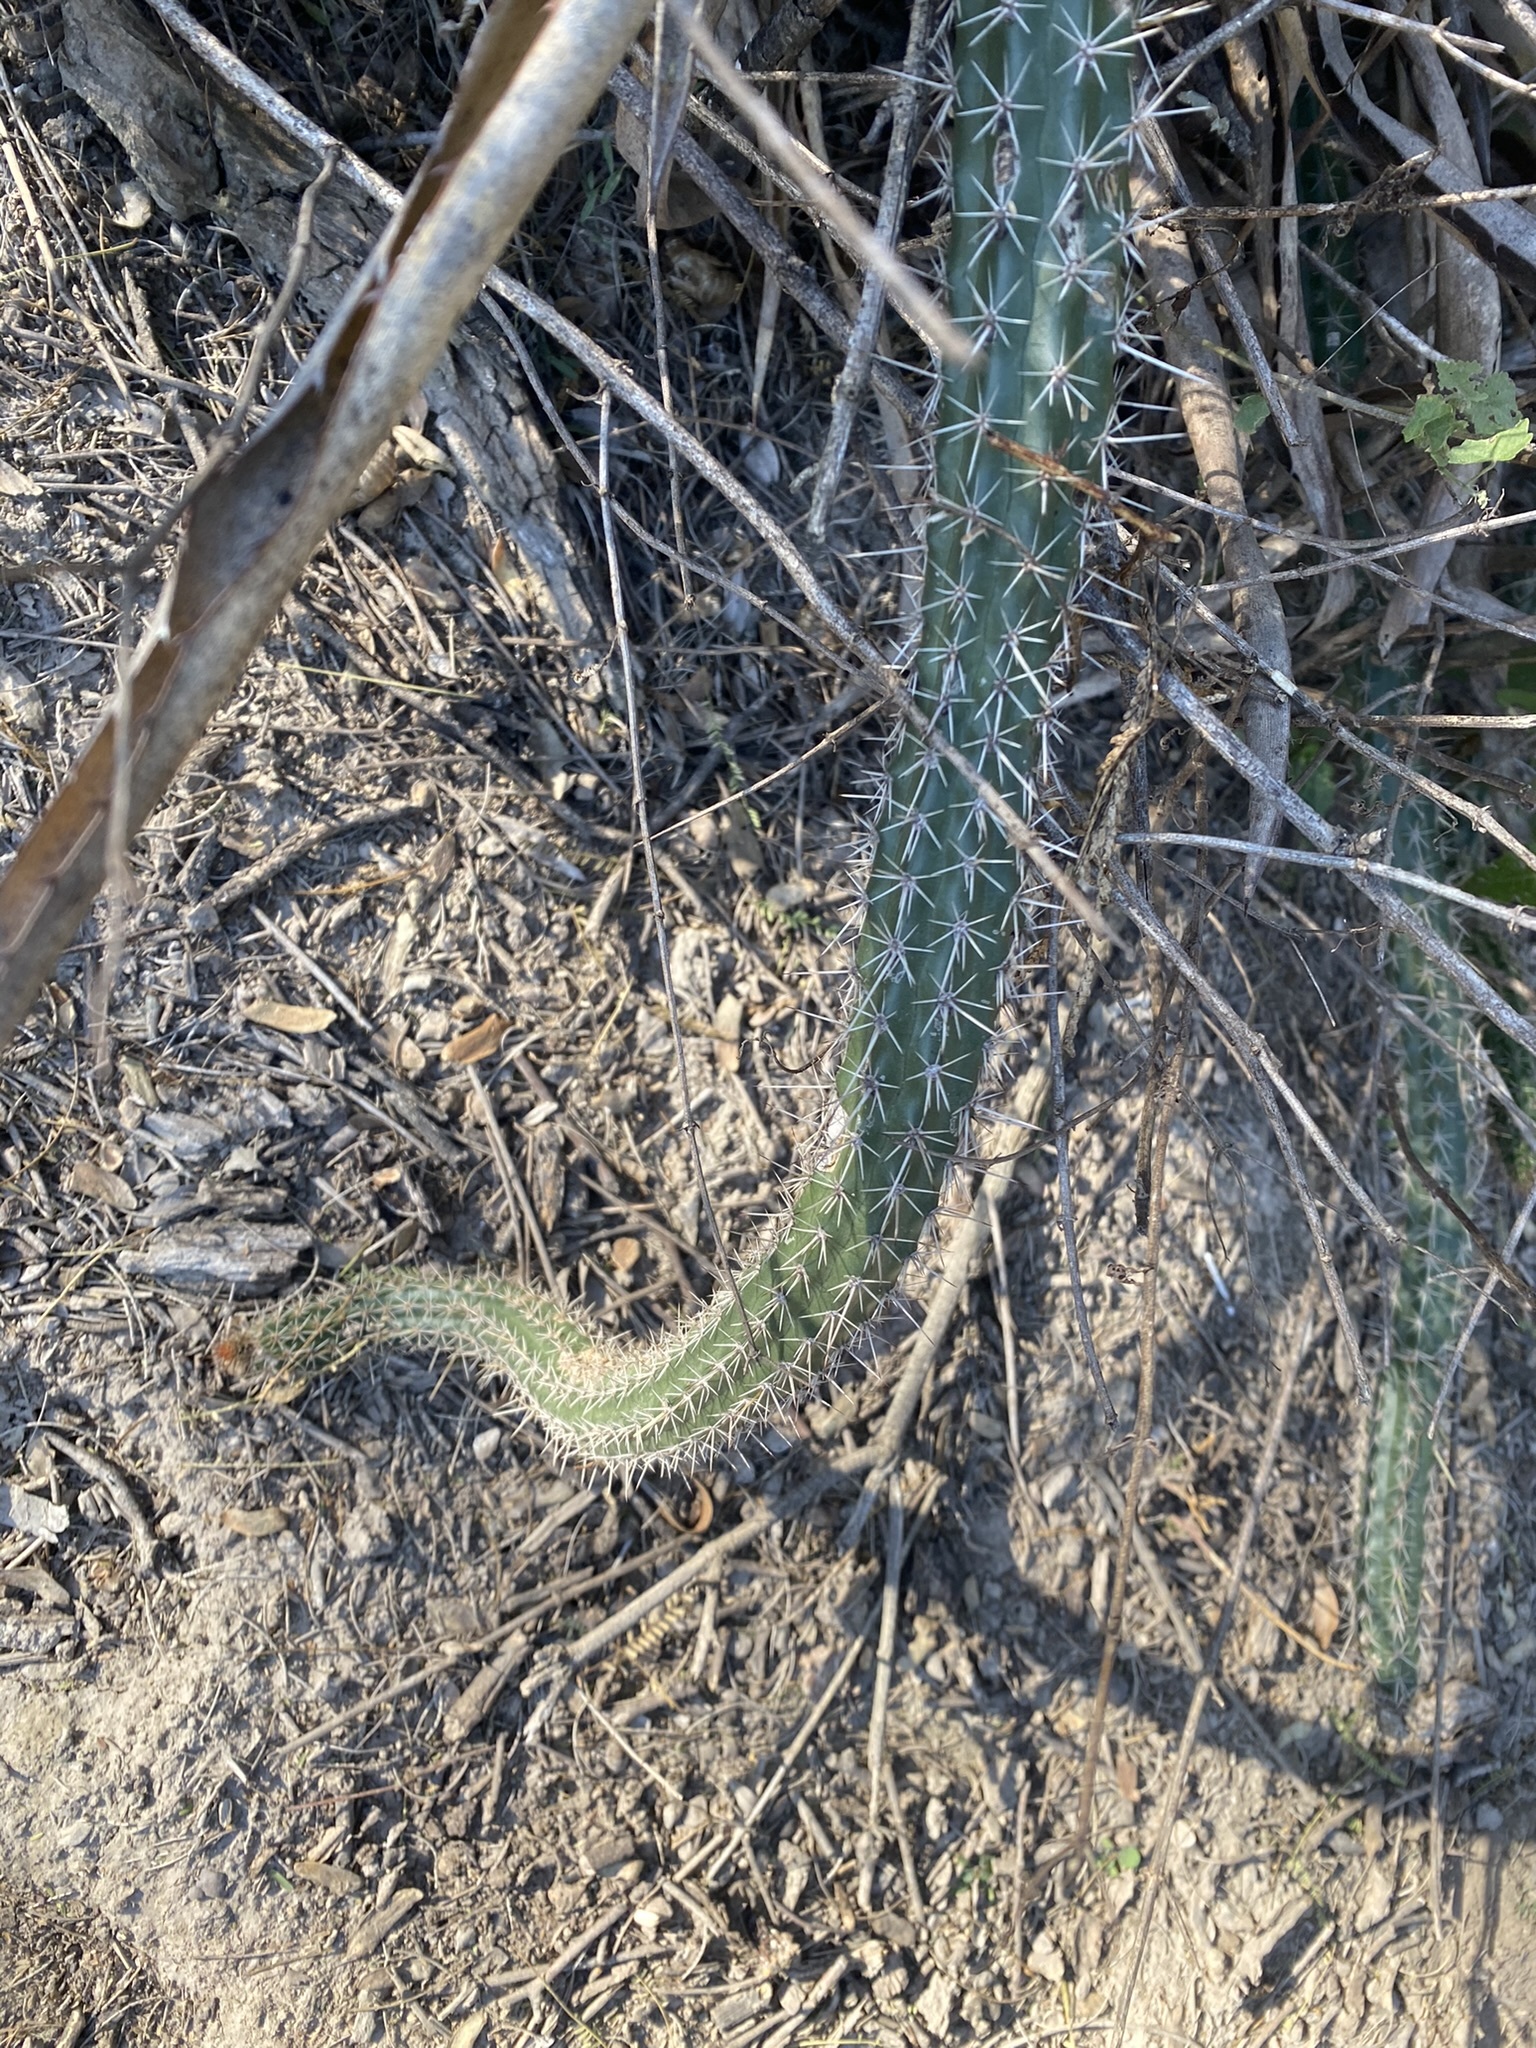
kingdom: Plantae
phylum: Tracheophyta
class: Magnoliopsida
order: Caryophyllales
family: Cactaceae
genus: Praecereus
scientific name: Praecereus euchlorus
